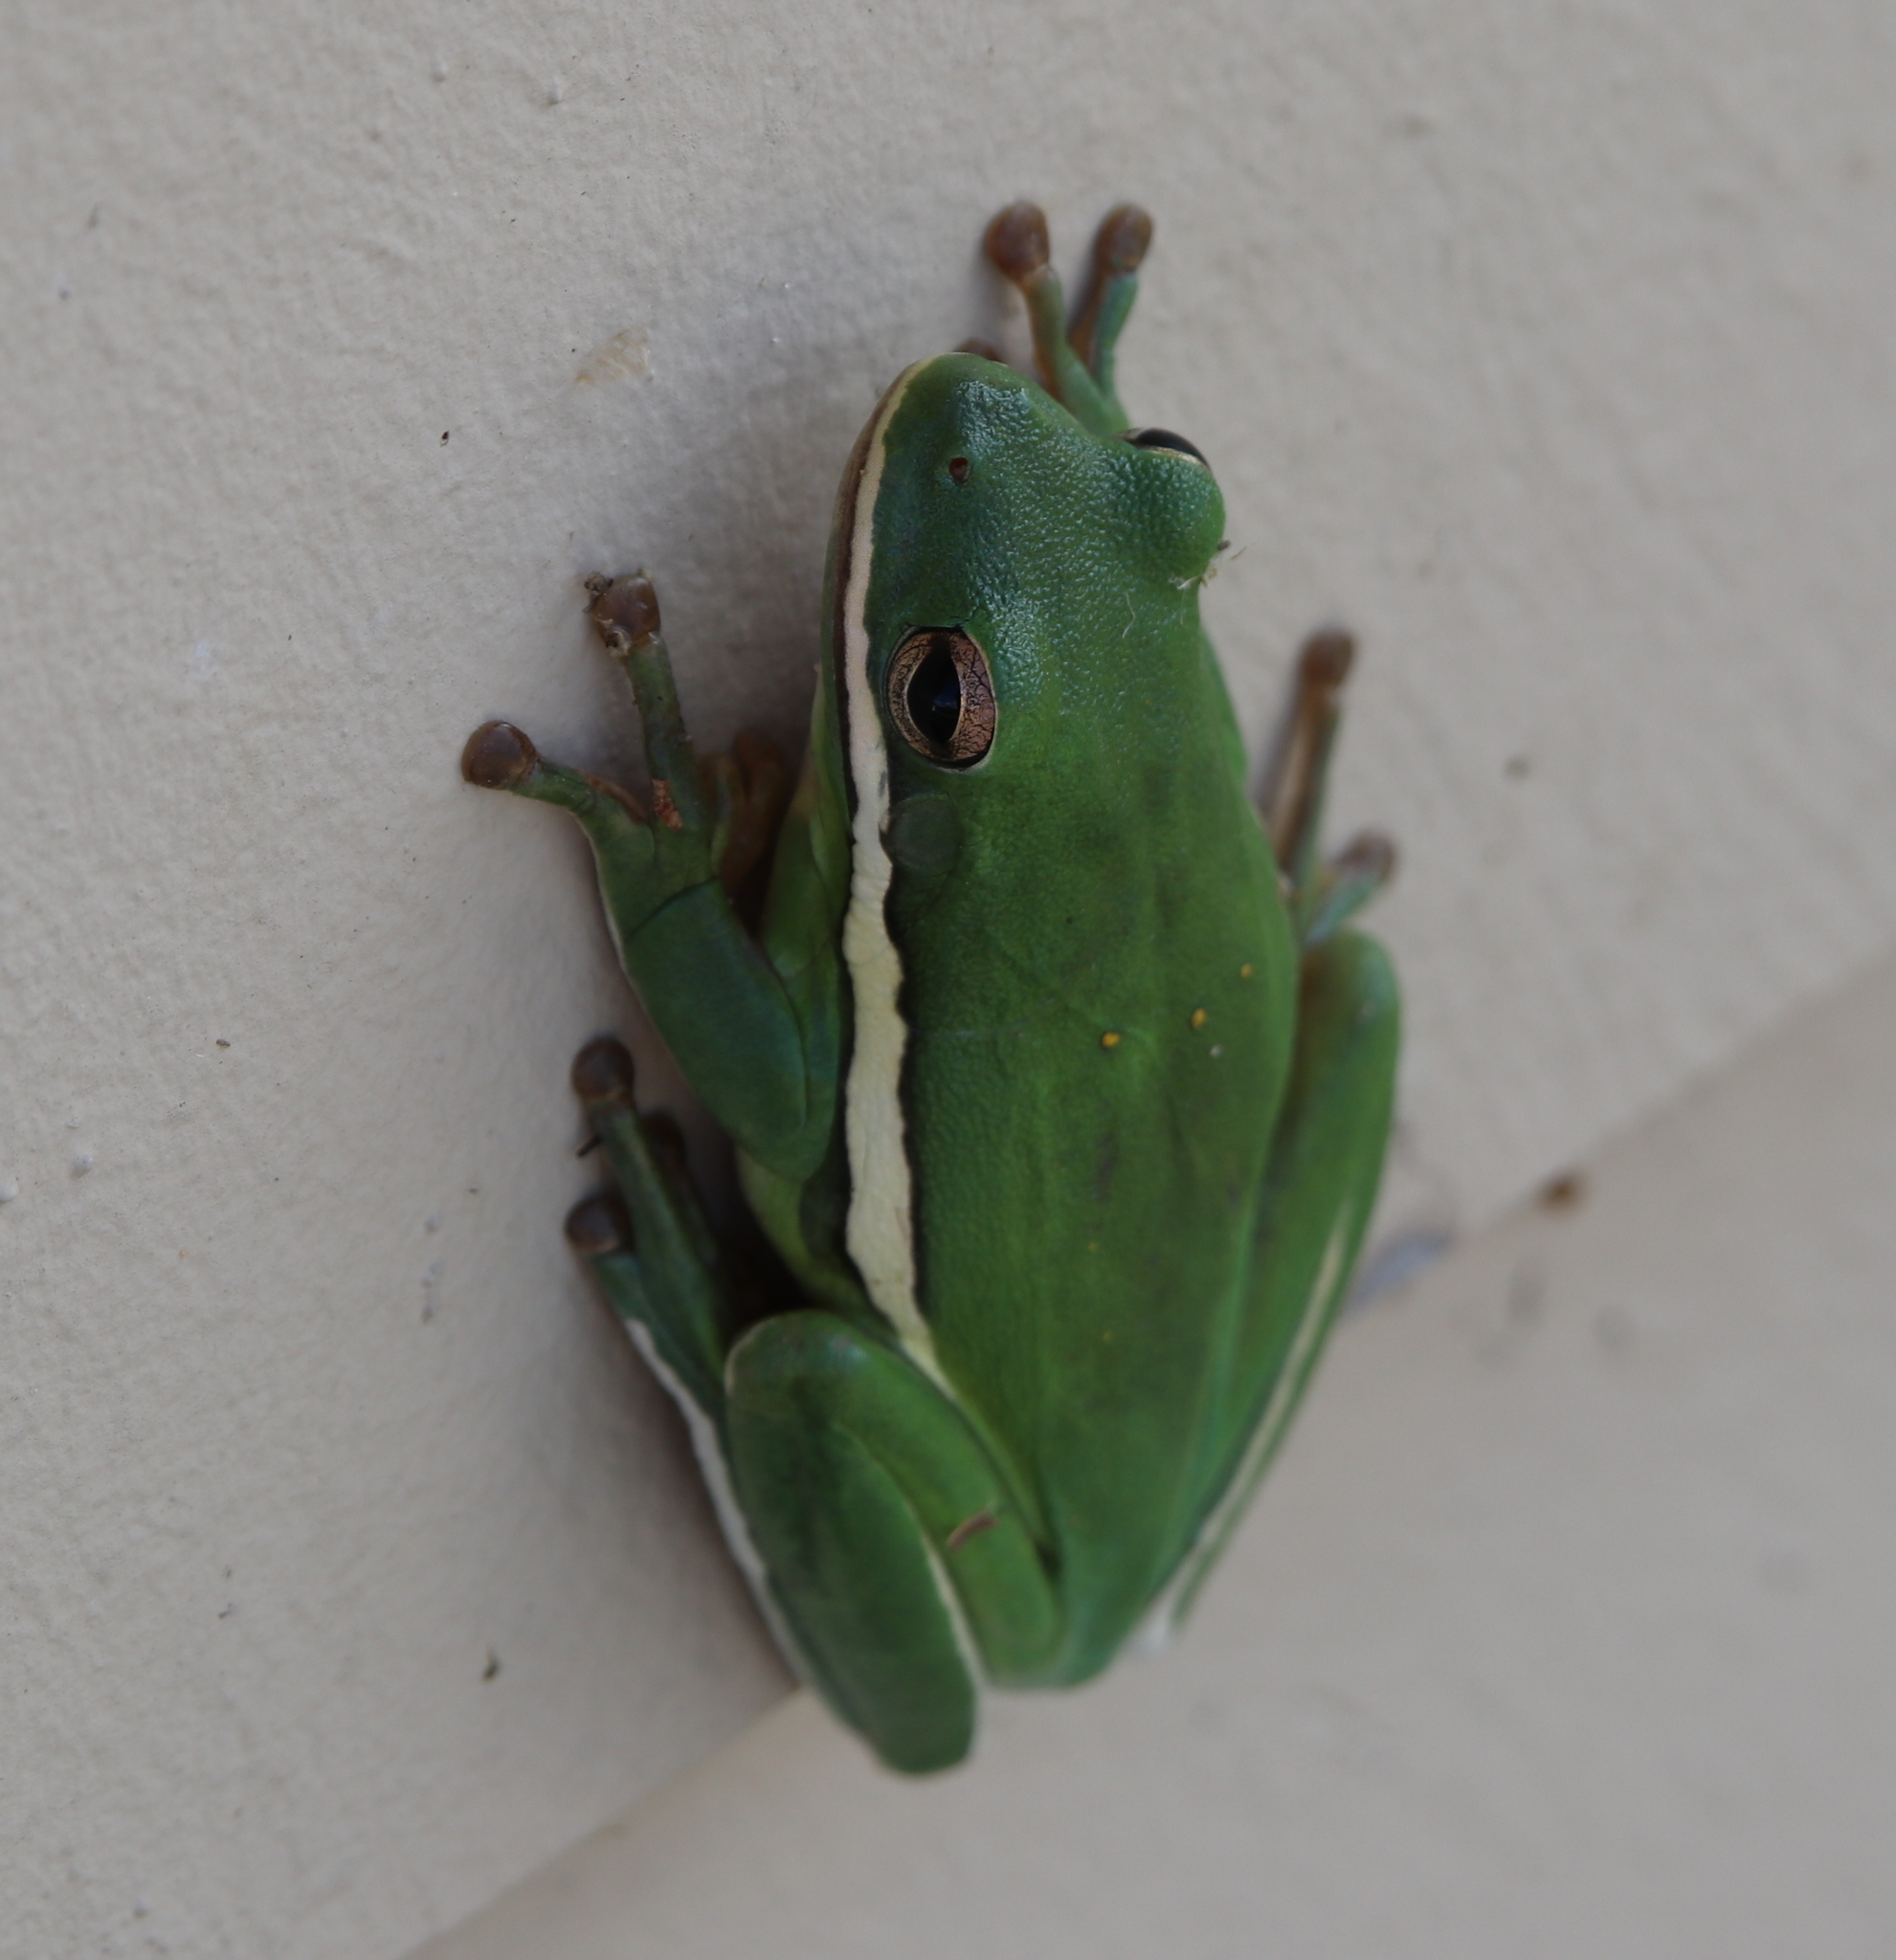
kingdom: Animalia
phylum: Chordata
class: Amphibia
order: Anura
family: Hylidae
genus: Dryophytes
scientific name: Dryophytes cinereus
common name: Green treefrog
